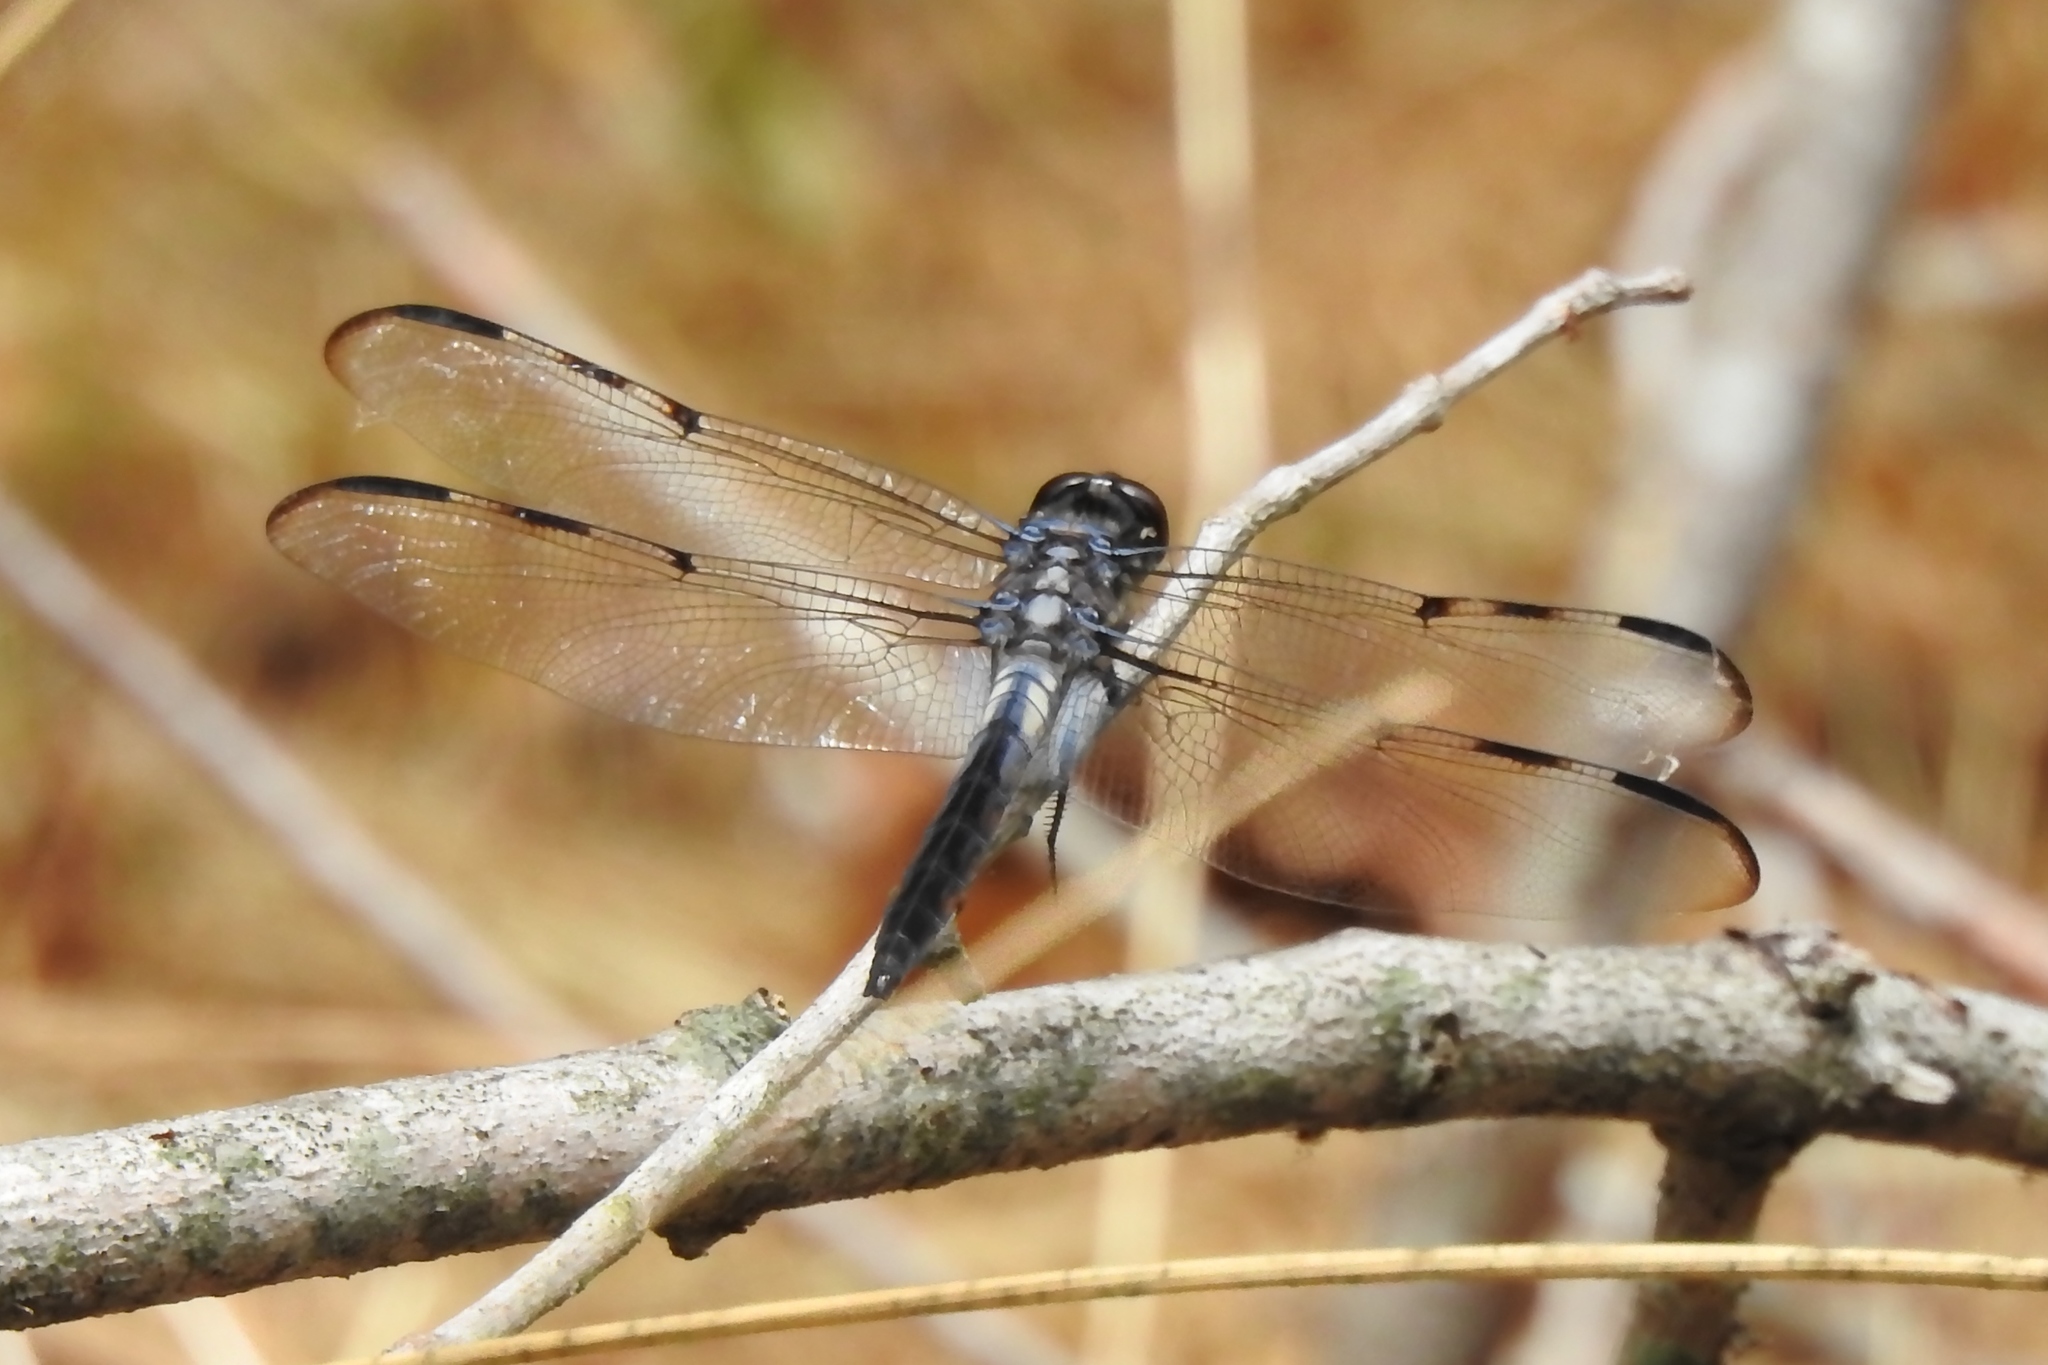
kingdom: Animalia
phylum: Arthropoda
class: Insecta
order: Odonata
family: Libellulidae
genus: Libellula
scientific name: Libellula axilena
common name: Bar-winged skimmer
